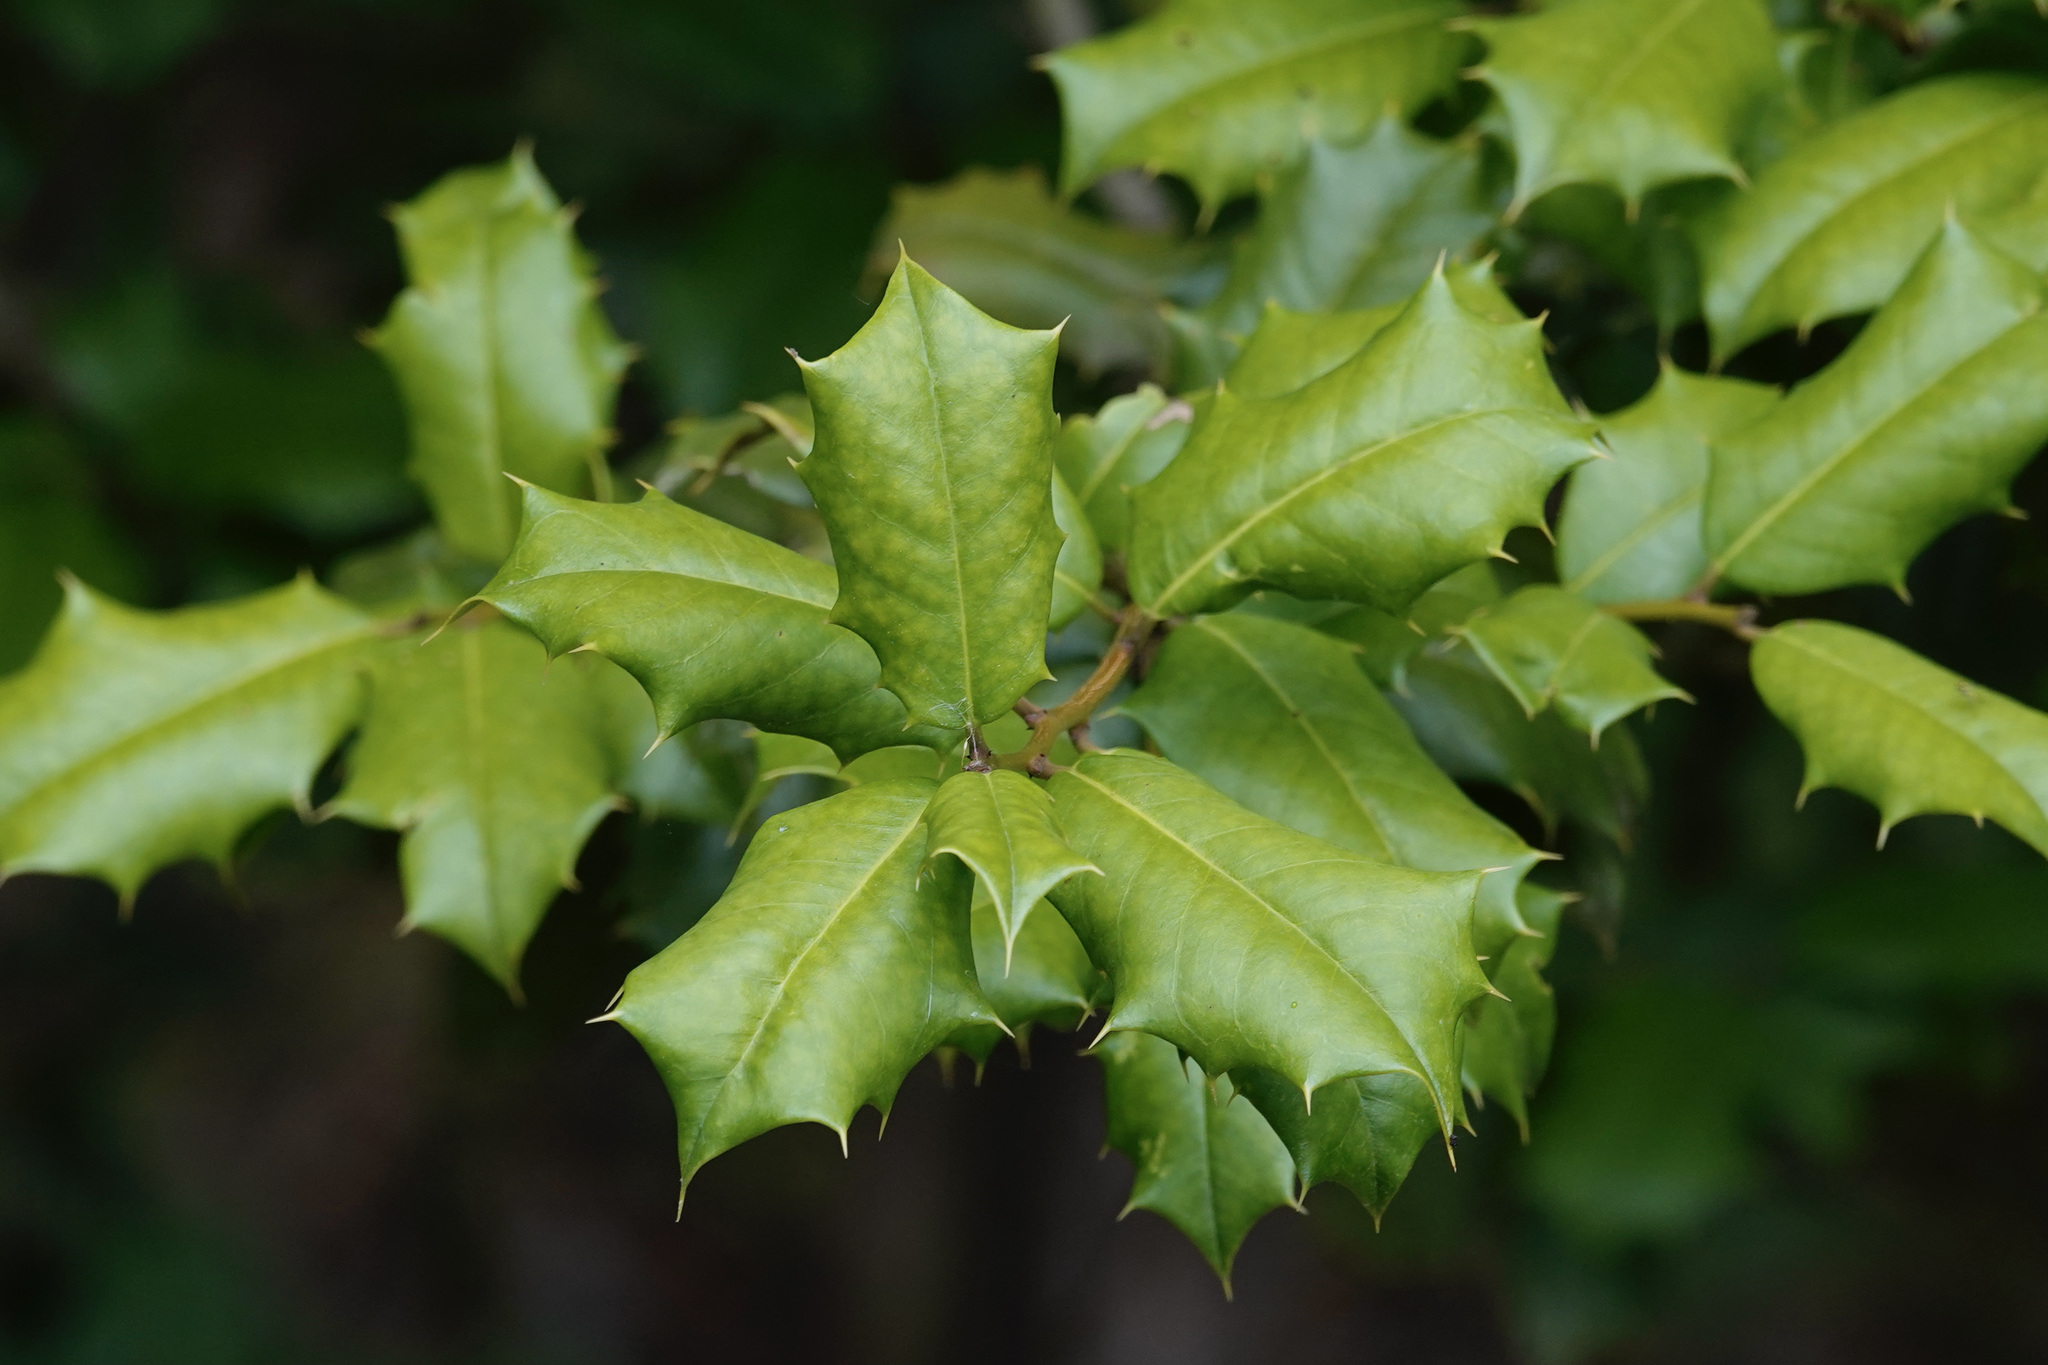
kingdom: Plantae
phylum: Tracheophyta
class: Magnoliopsida
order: Aquifoliales
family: Aquifoliaceae
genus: Ilex
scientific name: Ilex opaca
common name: American holly
